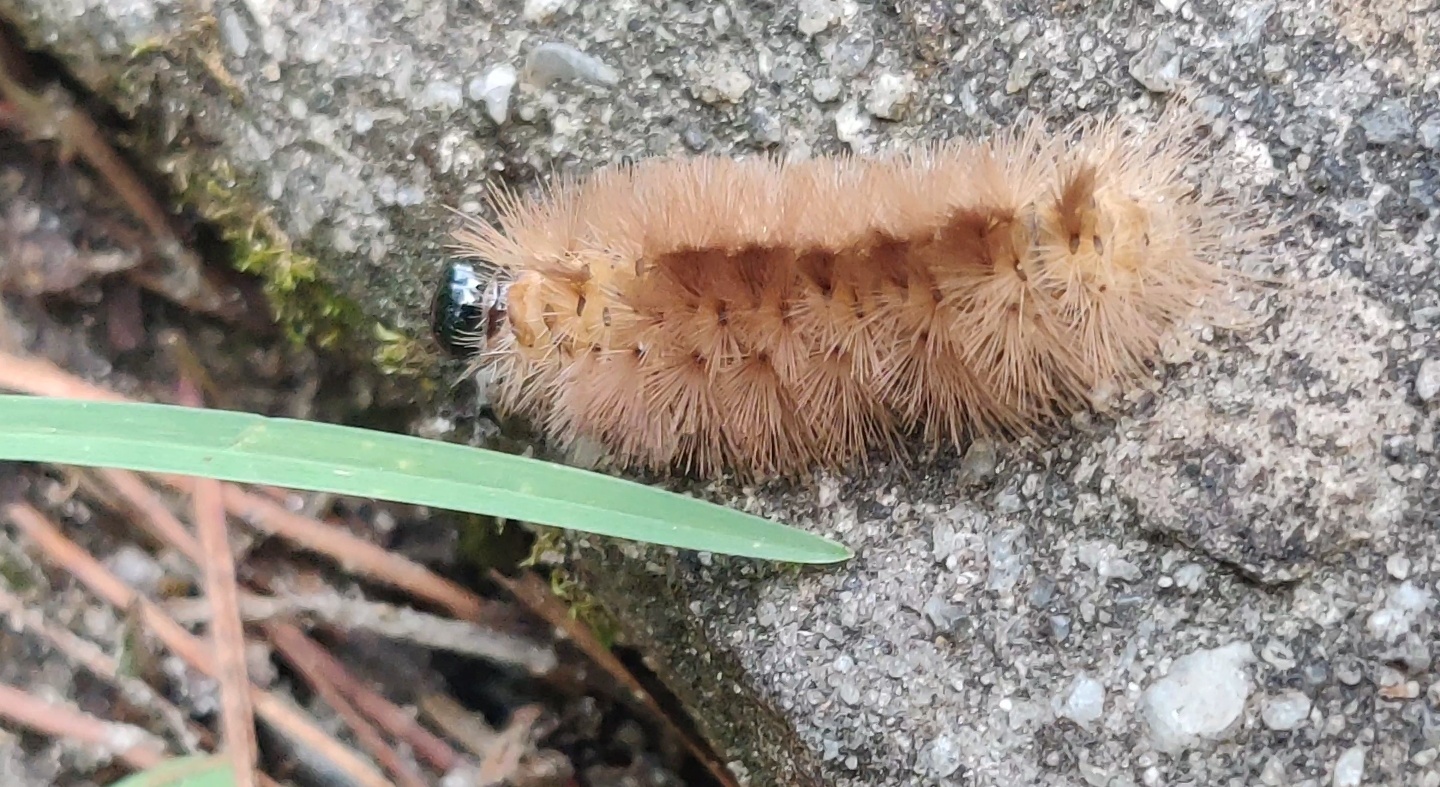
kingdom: Animalia
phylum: Arthropoda
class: Insecta
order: Lepidoptera
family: Erebidae
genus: Halysidota
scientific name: Halysidota tessellaris
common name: Banded tussock moth
